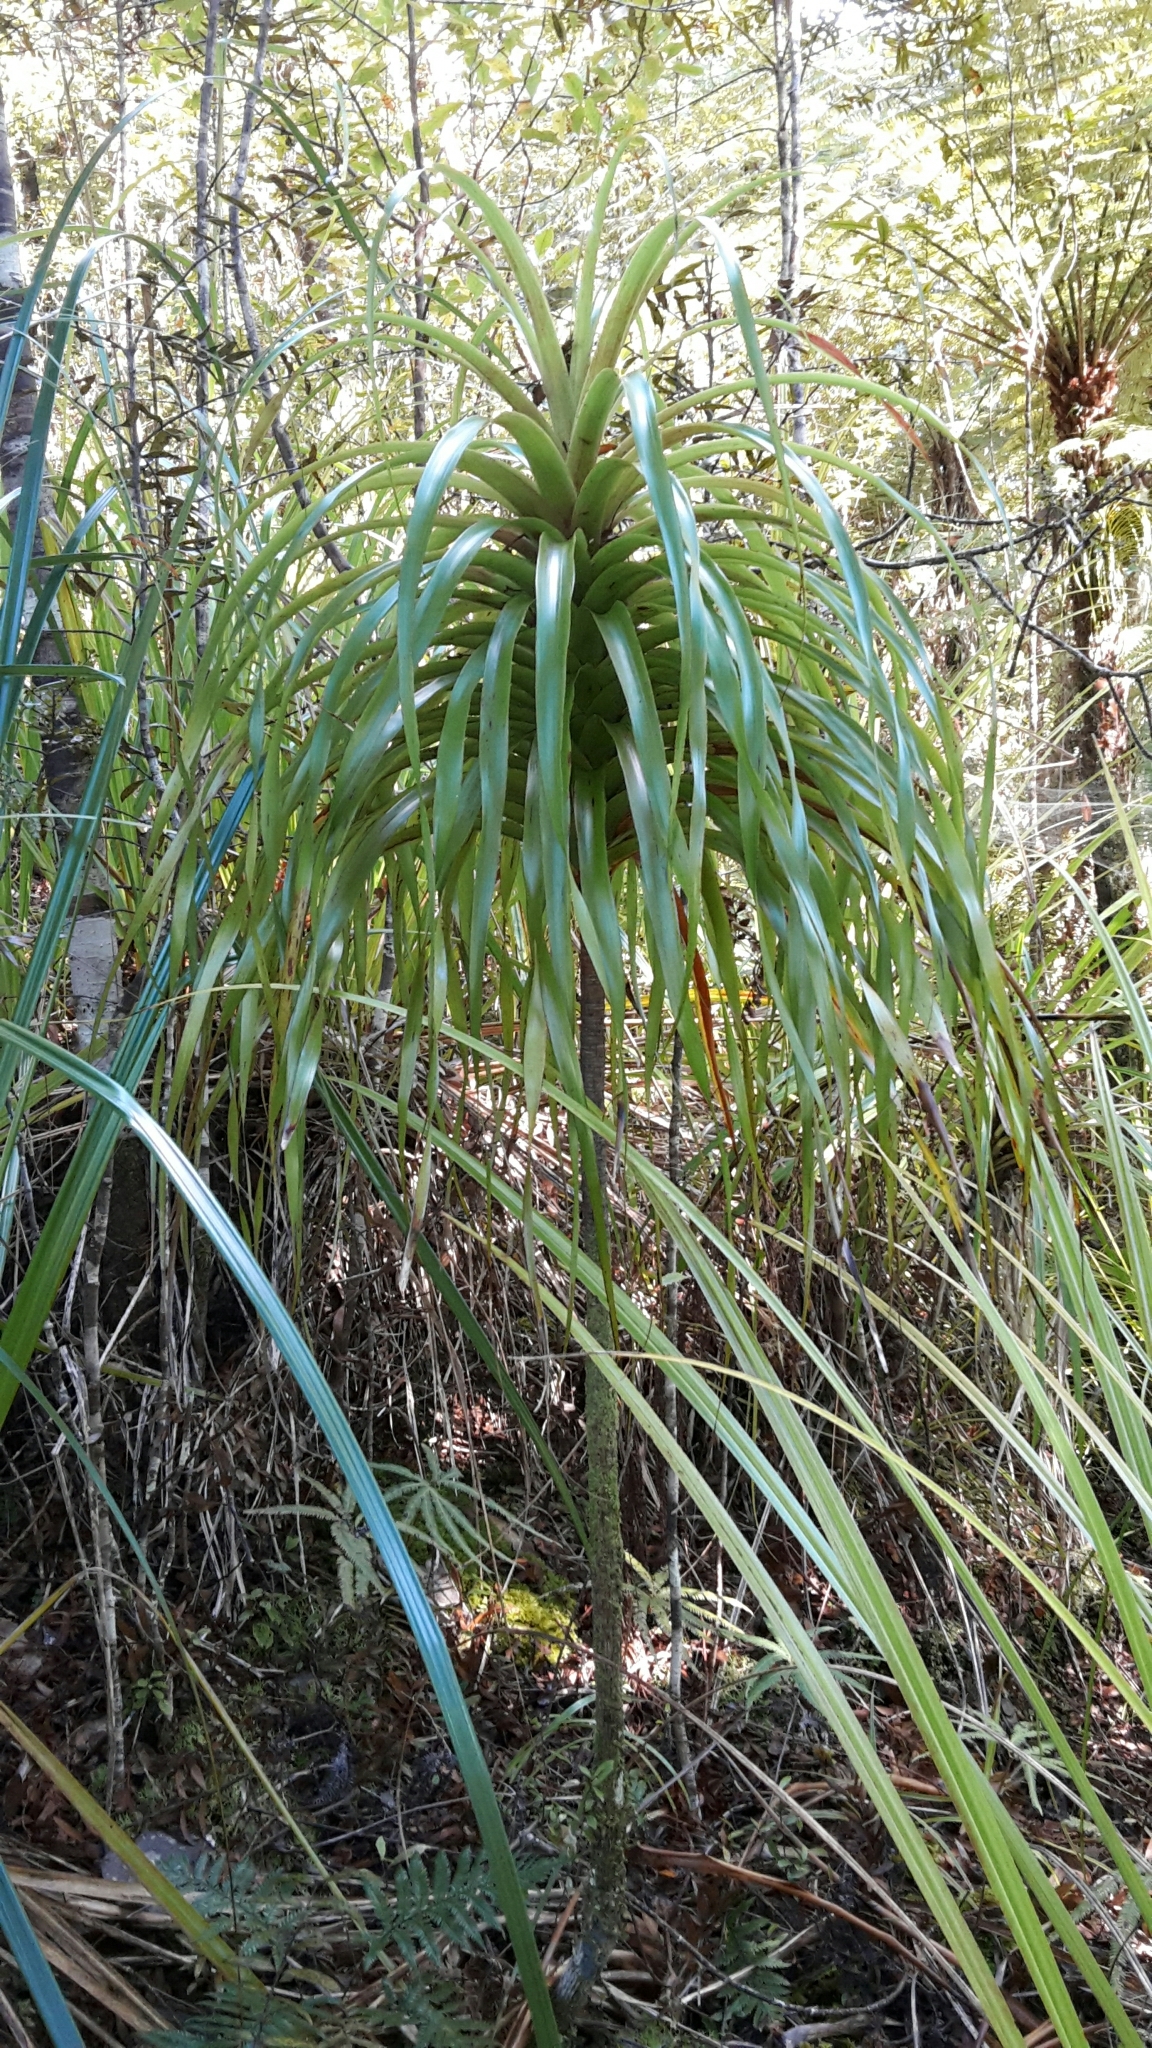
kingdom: Plantae
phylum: Tracheophyta
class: Magnoliopsida
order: Ericales
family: Ericaceae
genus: Dracophyllum
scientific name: Dracophyllum latifolium
